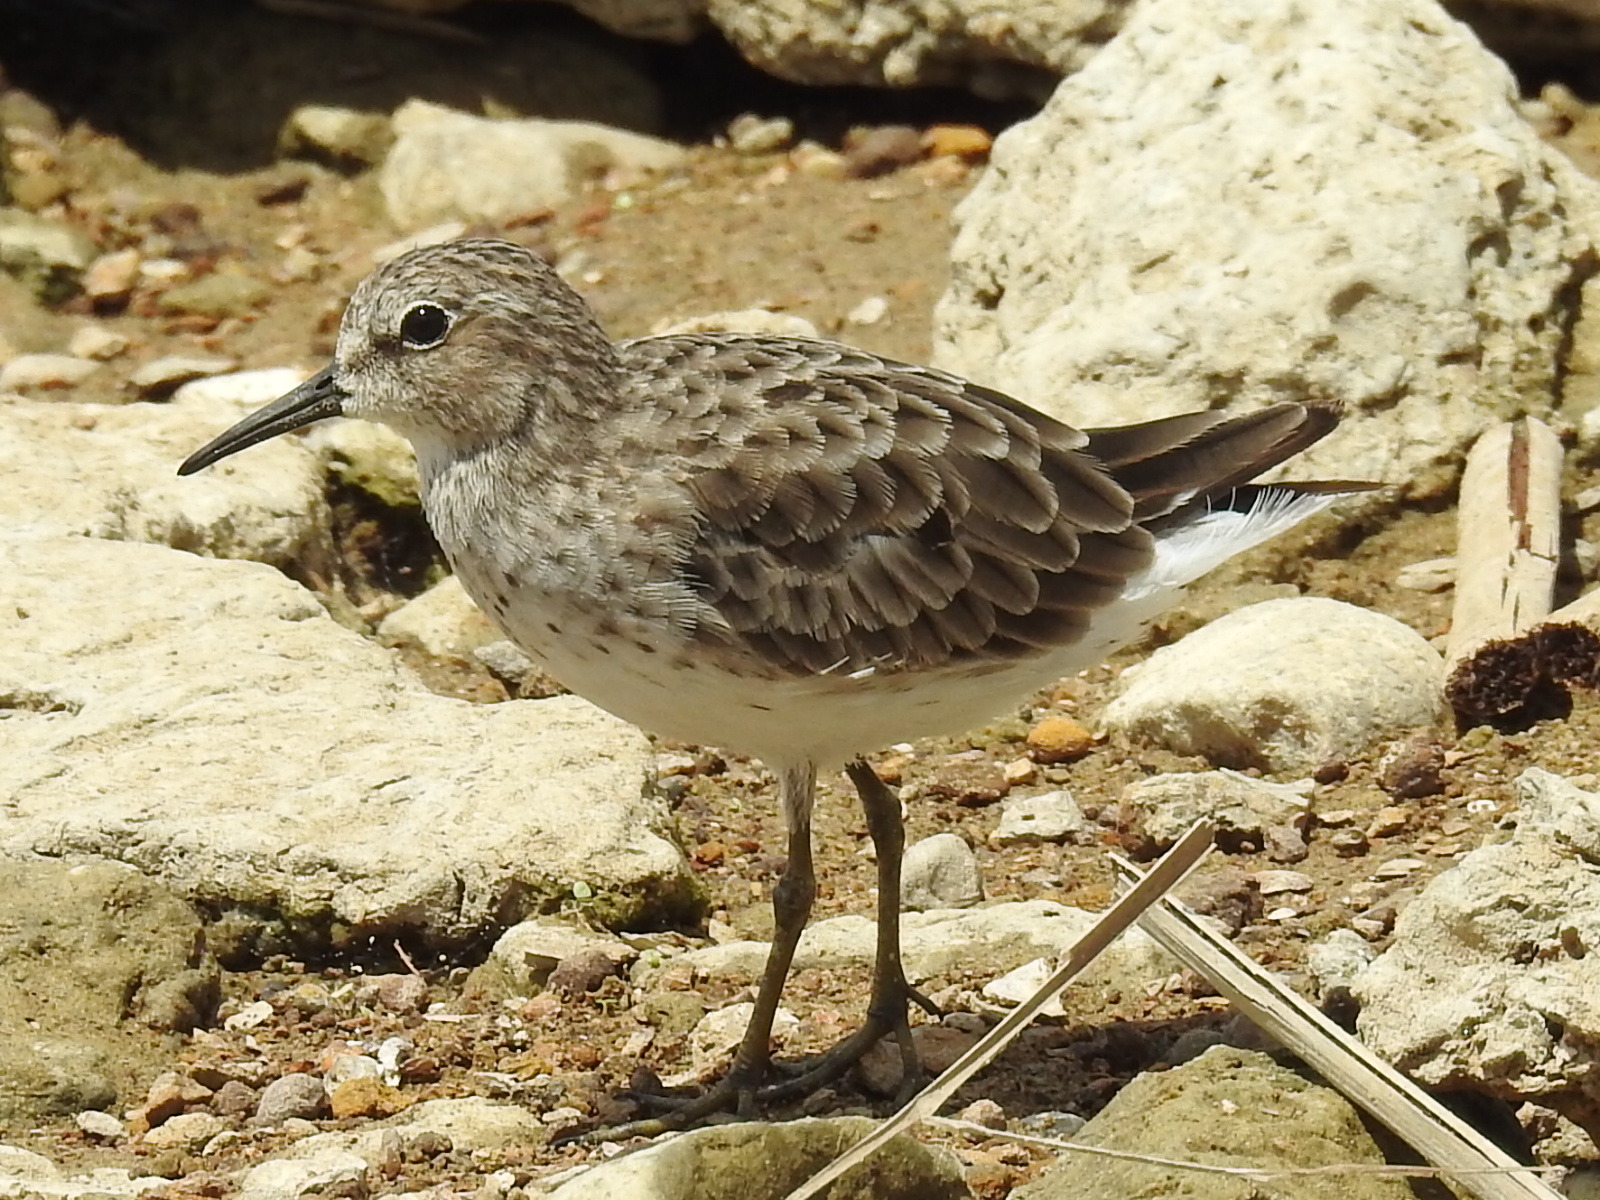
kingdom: Animalia
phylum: Chordata
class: Aves
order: Charadriiformes
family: Scolopacidae
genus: Calidris
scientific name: Calidris minutilla
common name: Least sandpiper
